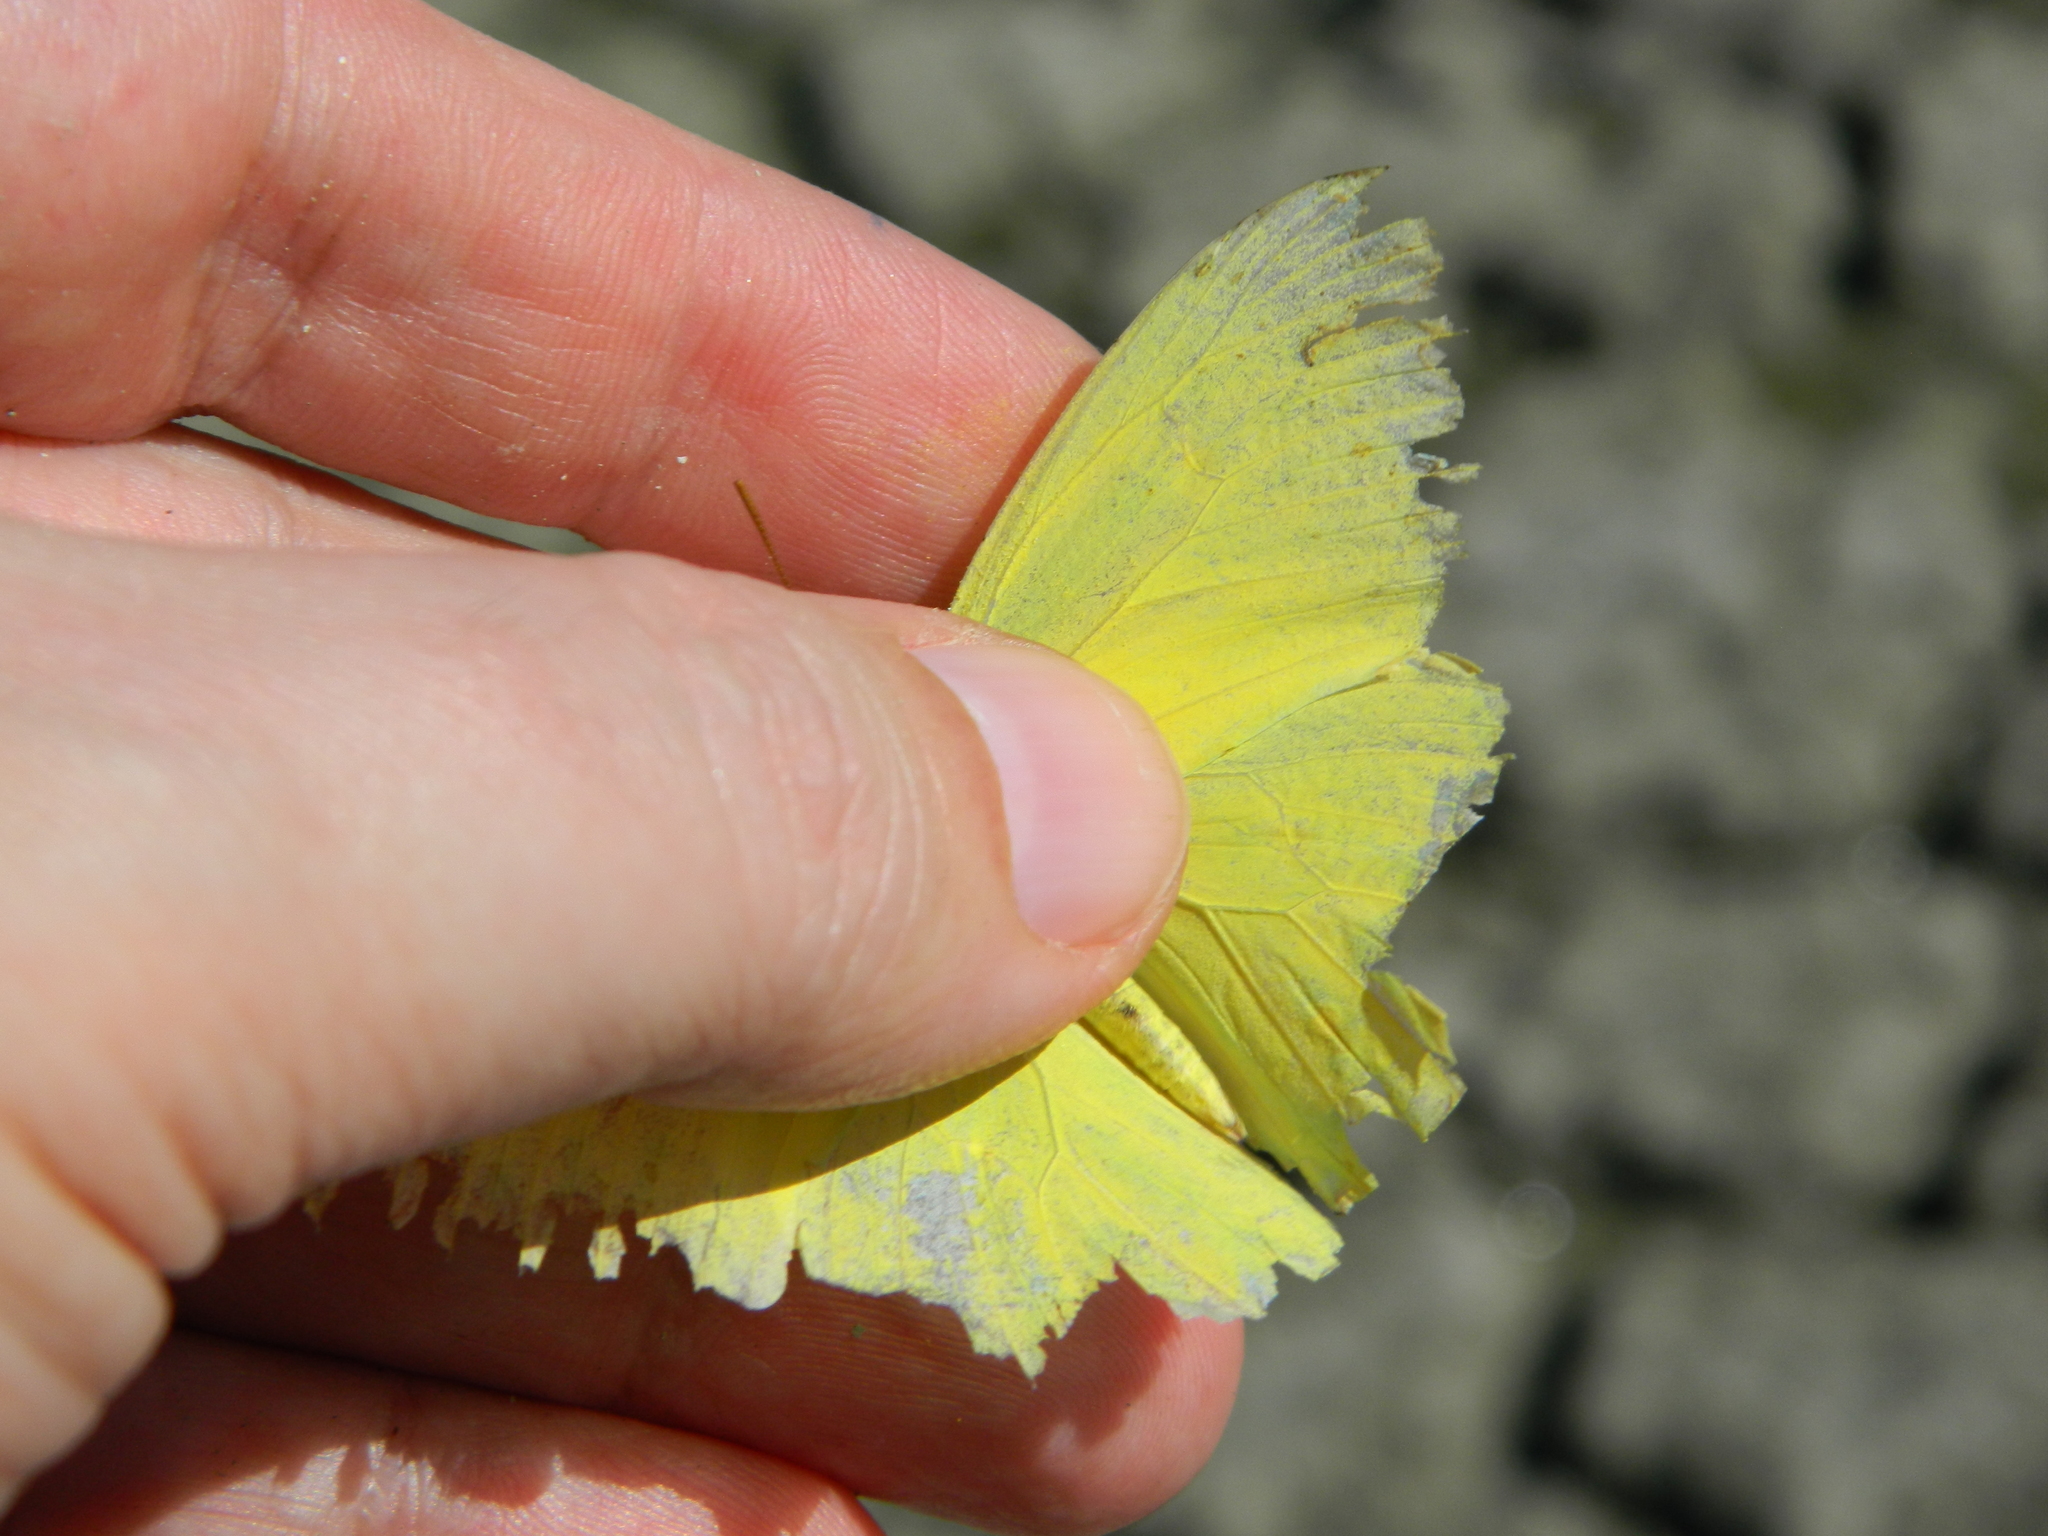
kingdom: Animalia
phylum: Arthropoda
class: Insecta
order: Lepidoptera
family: Pieridae
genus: Phoebis
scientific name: Phoebis sennae
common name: Cloudless sulphur
